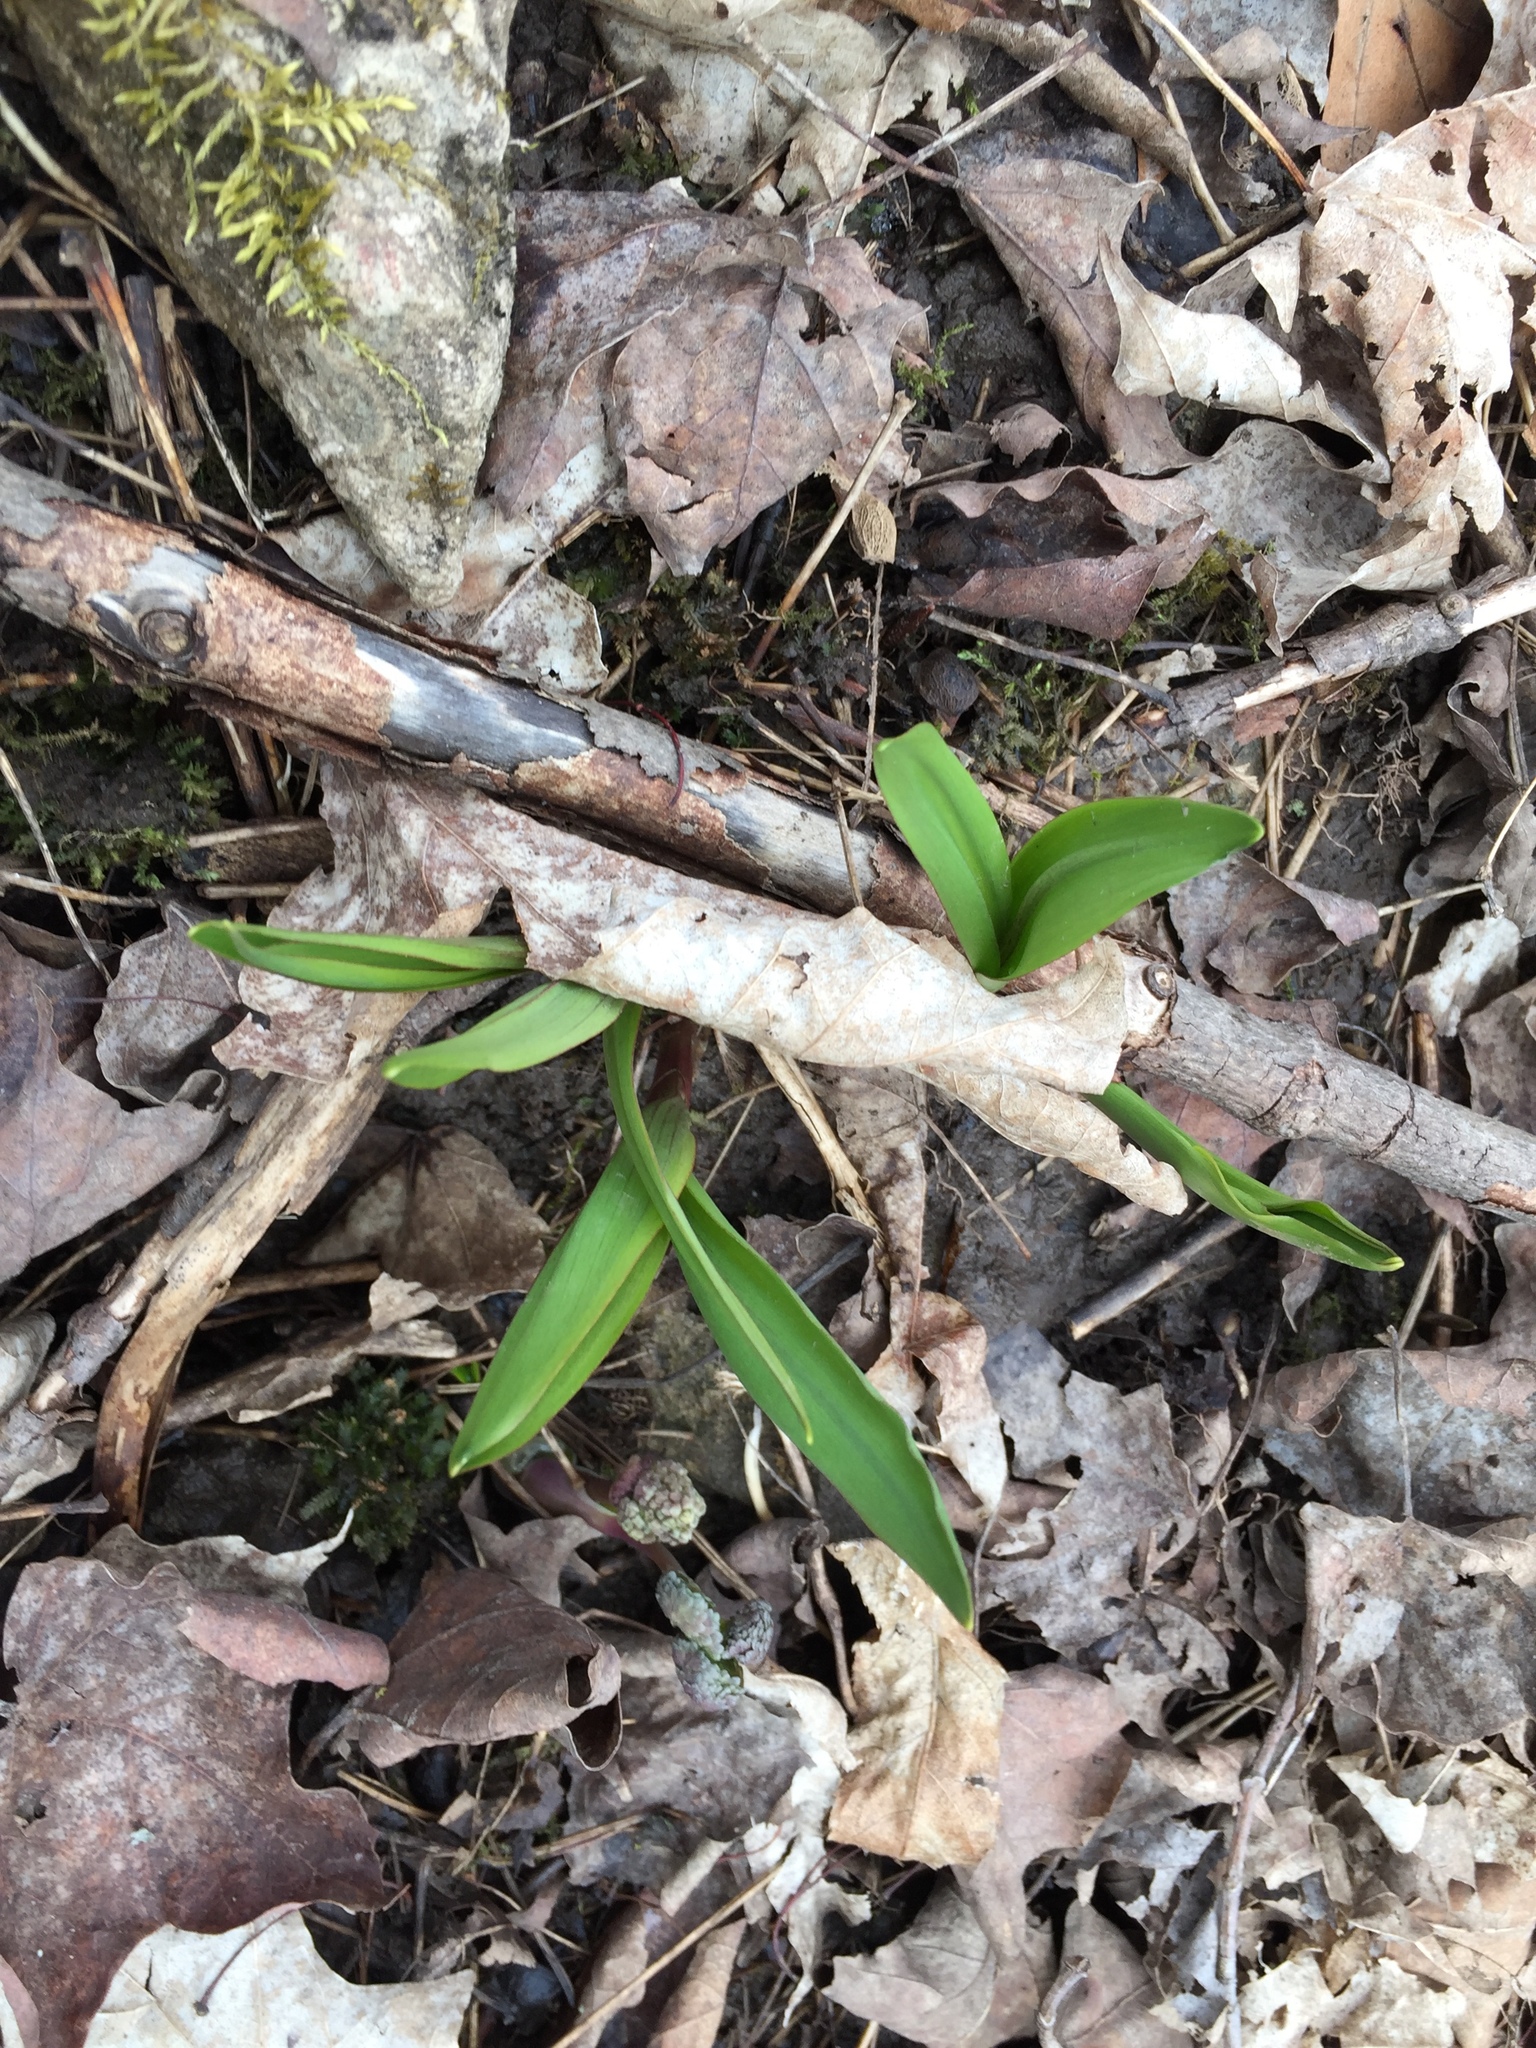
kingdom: Plantae
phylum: Tracheophyta
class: Liliopsida
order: Asparagales
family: Amaryllidaceae
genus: Allium
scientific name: Allium tricoccum
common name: Ramp
